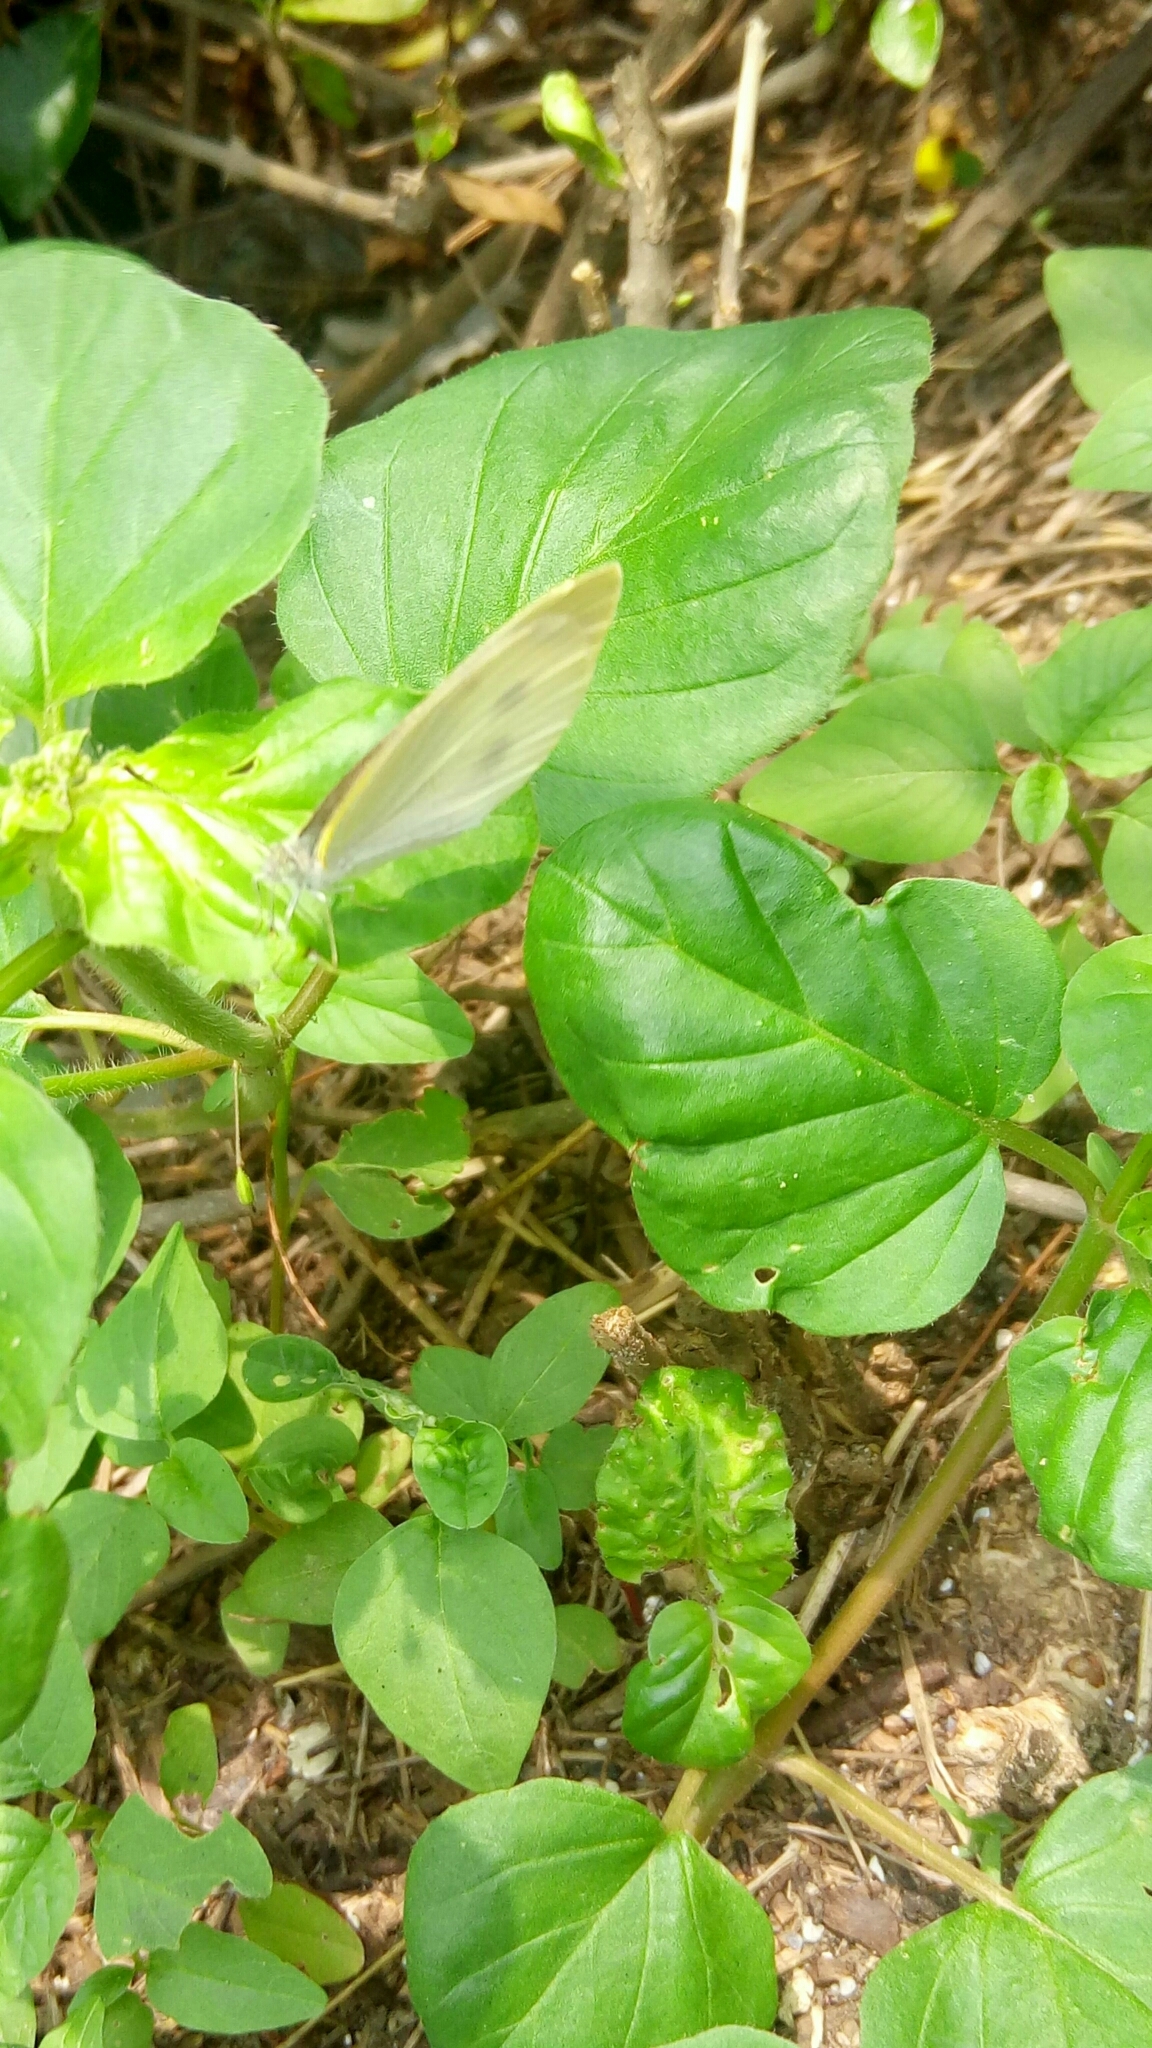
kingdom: Animalia
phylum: Arthropoda
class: Insecta
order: Lepidoptera
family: Pieridae
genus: Pieris
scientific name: Pieris rapae
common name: Small white
